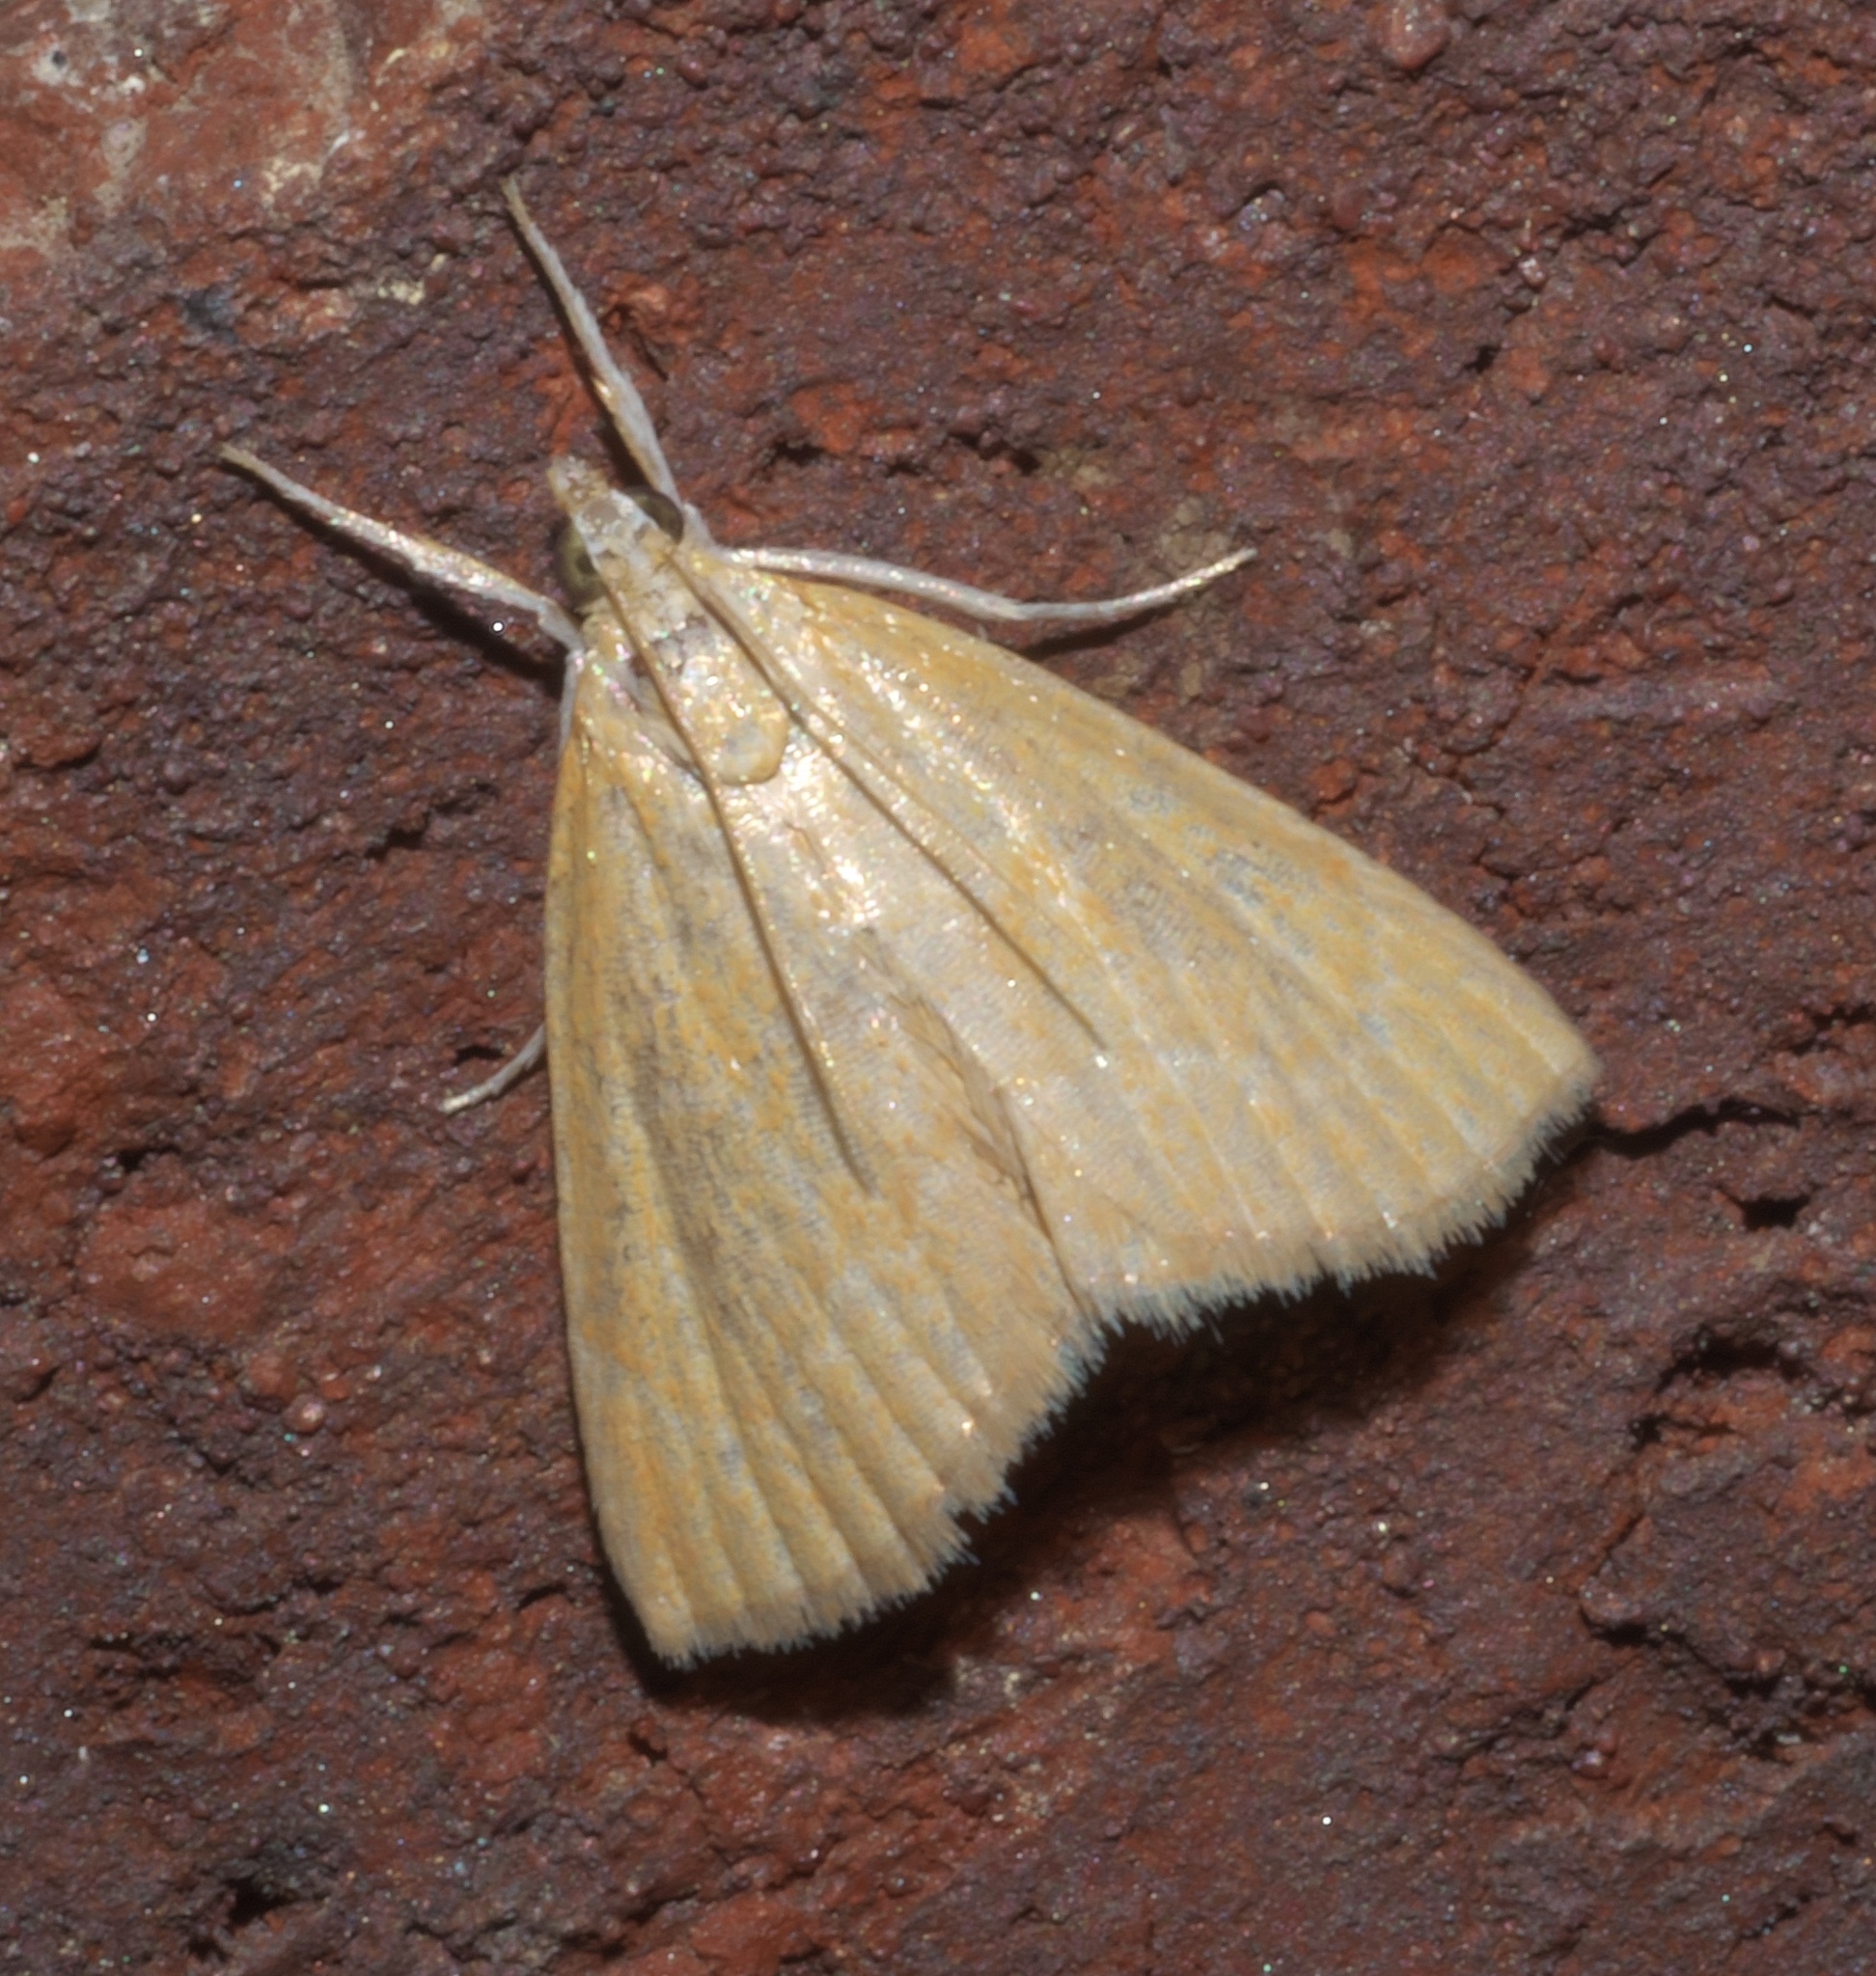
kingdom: Animalia
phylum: Arthropoda
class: Insecta
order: Lepidoptera
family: Crambidae
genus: Glaphyria
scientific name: Glaphyria invisalis
